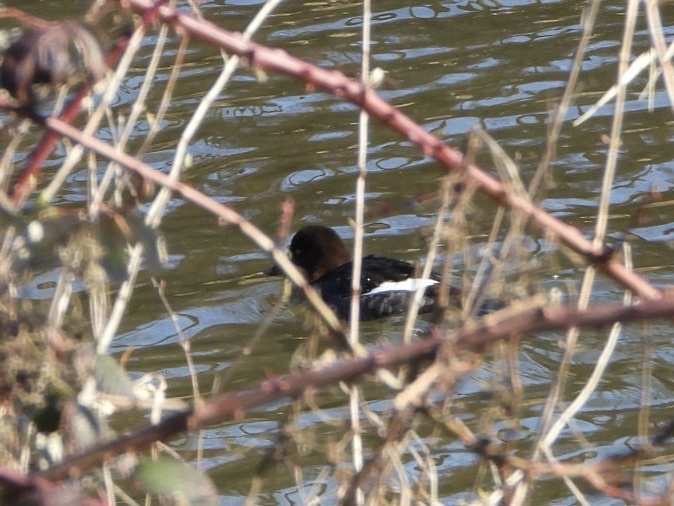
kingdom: Animalia
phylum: Chordata
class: Aves
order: Anseriformes
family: Anatidae
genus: Bucephala
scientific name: Bucephala clangula
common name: Common goldeneye
